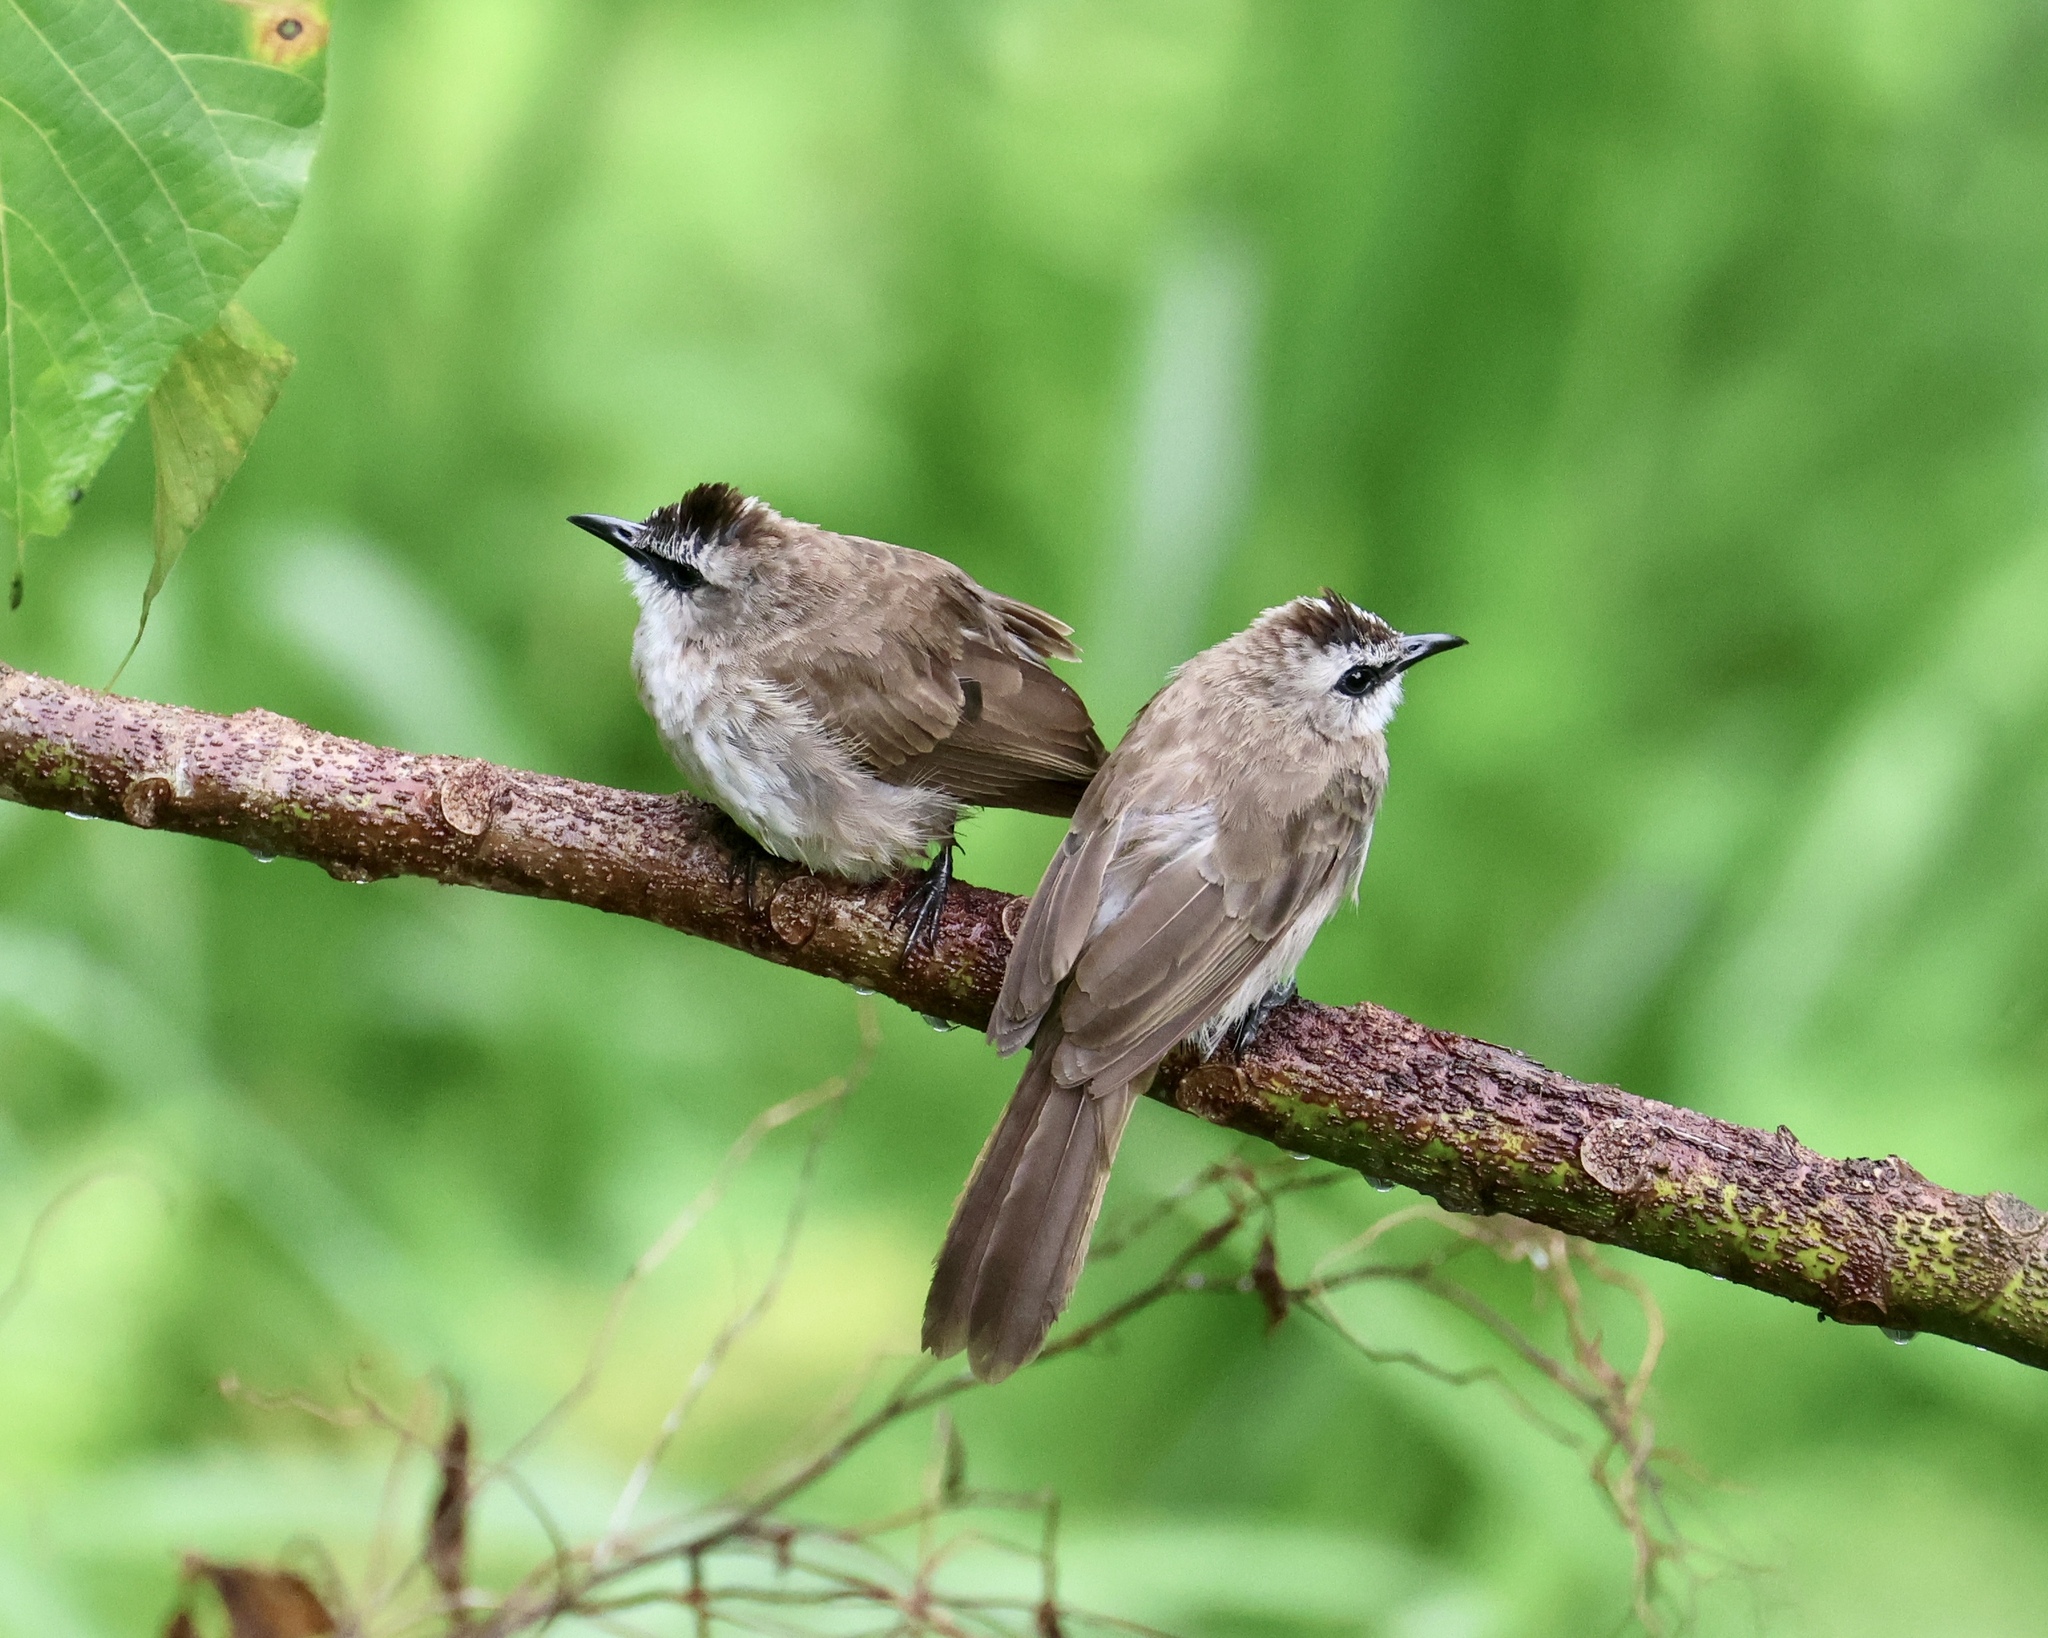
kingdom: Animalia
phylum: Chordata
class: Aves
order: Passeriformes
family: Pycnonotidae
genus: Pycnonotus
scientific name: Pycnonotus goiavier
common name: Yellow-vented bulbul
